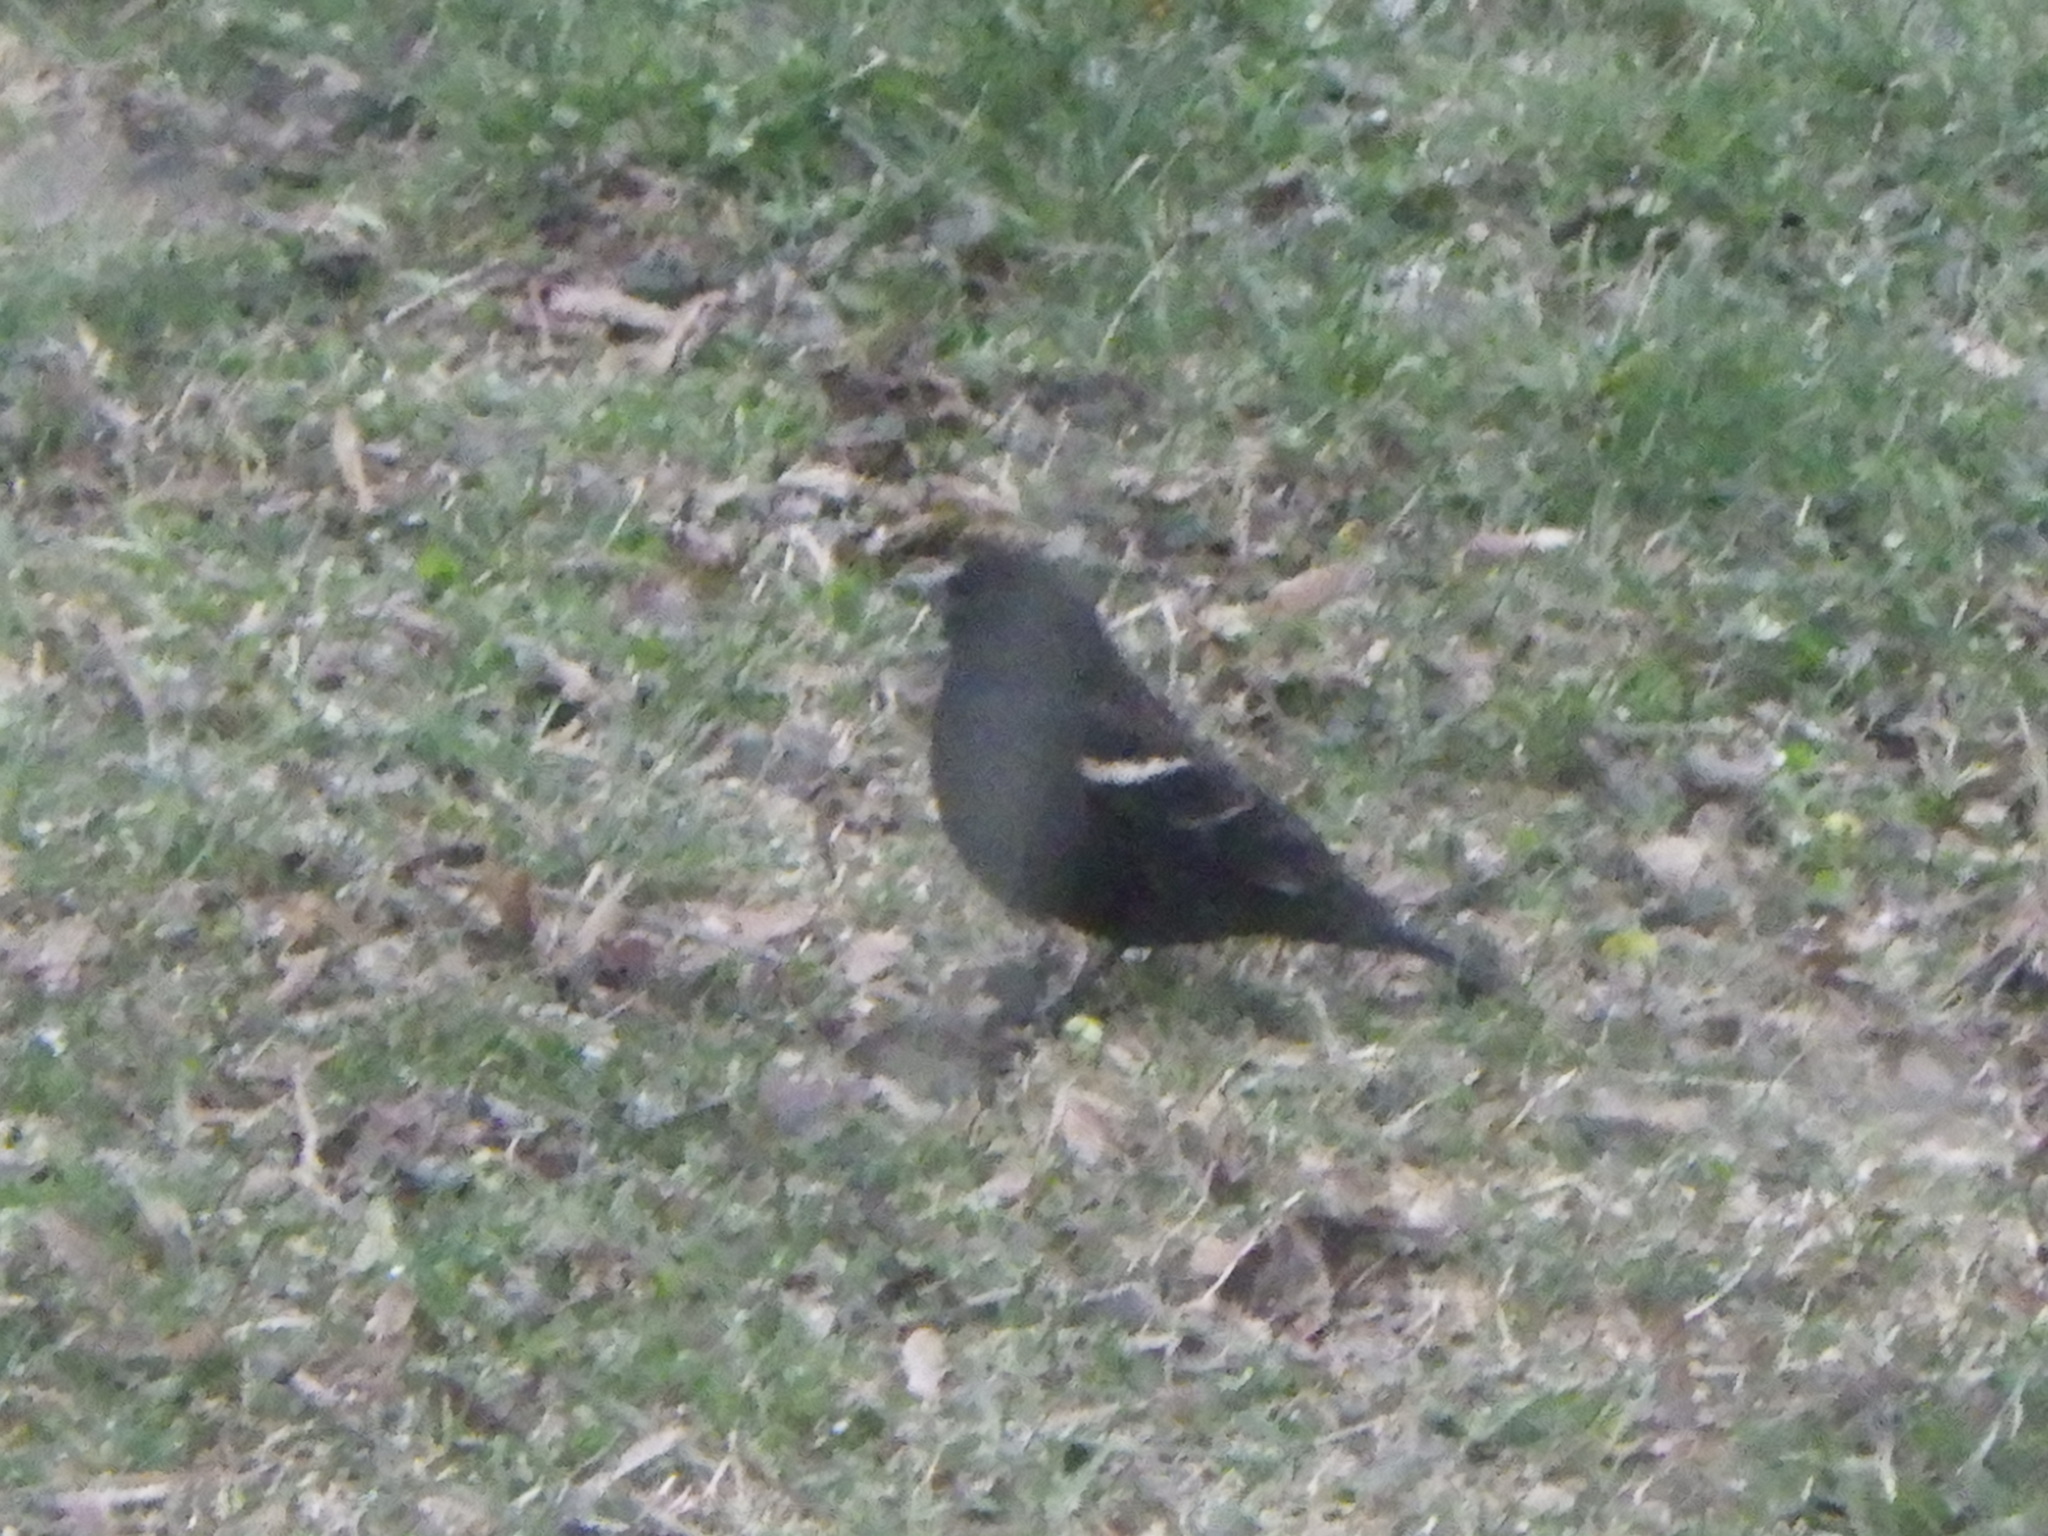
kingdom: Animalia
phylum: Chordata
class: Aves
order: Passeriformes
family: Icteridae
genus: Agelaius
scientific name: Agelaius phoeniceus
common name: Red-winged blackbird
